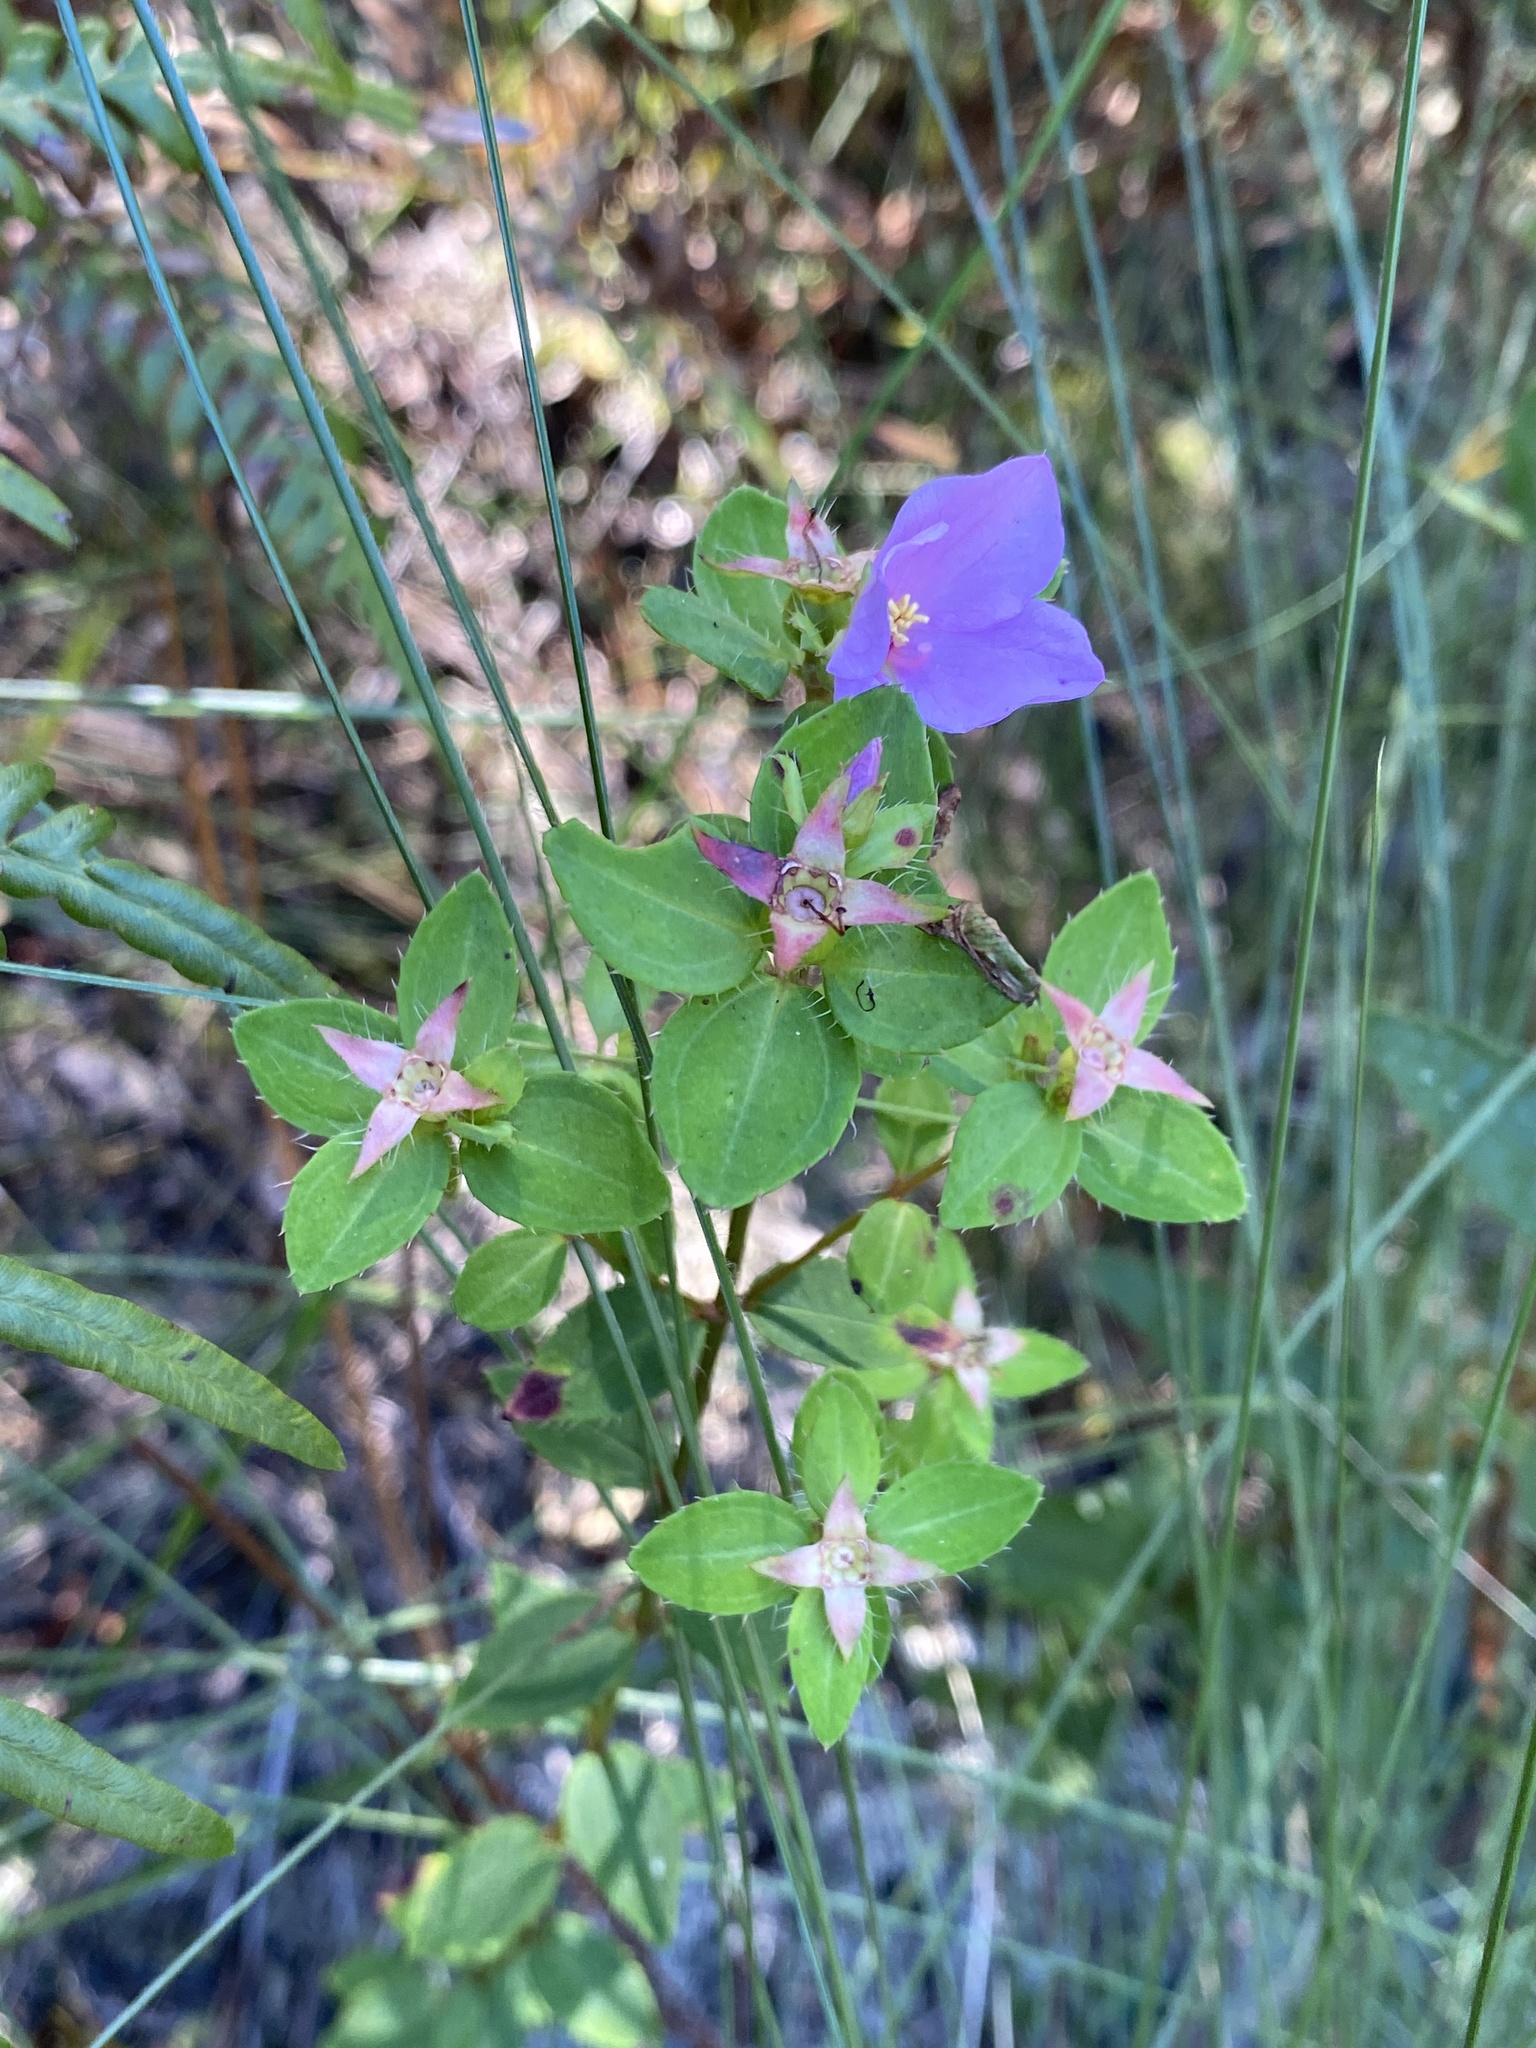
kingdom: Plantae
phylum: Tracheophyta
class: Magnoliopsida
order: Myrtales
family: Melastomataceae
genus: Rhexia
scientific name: Rhexia petiolata
